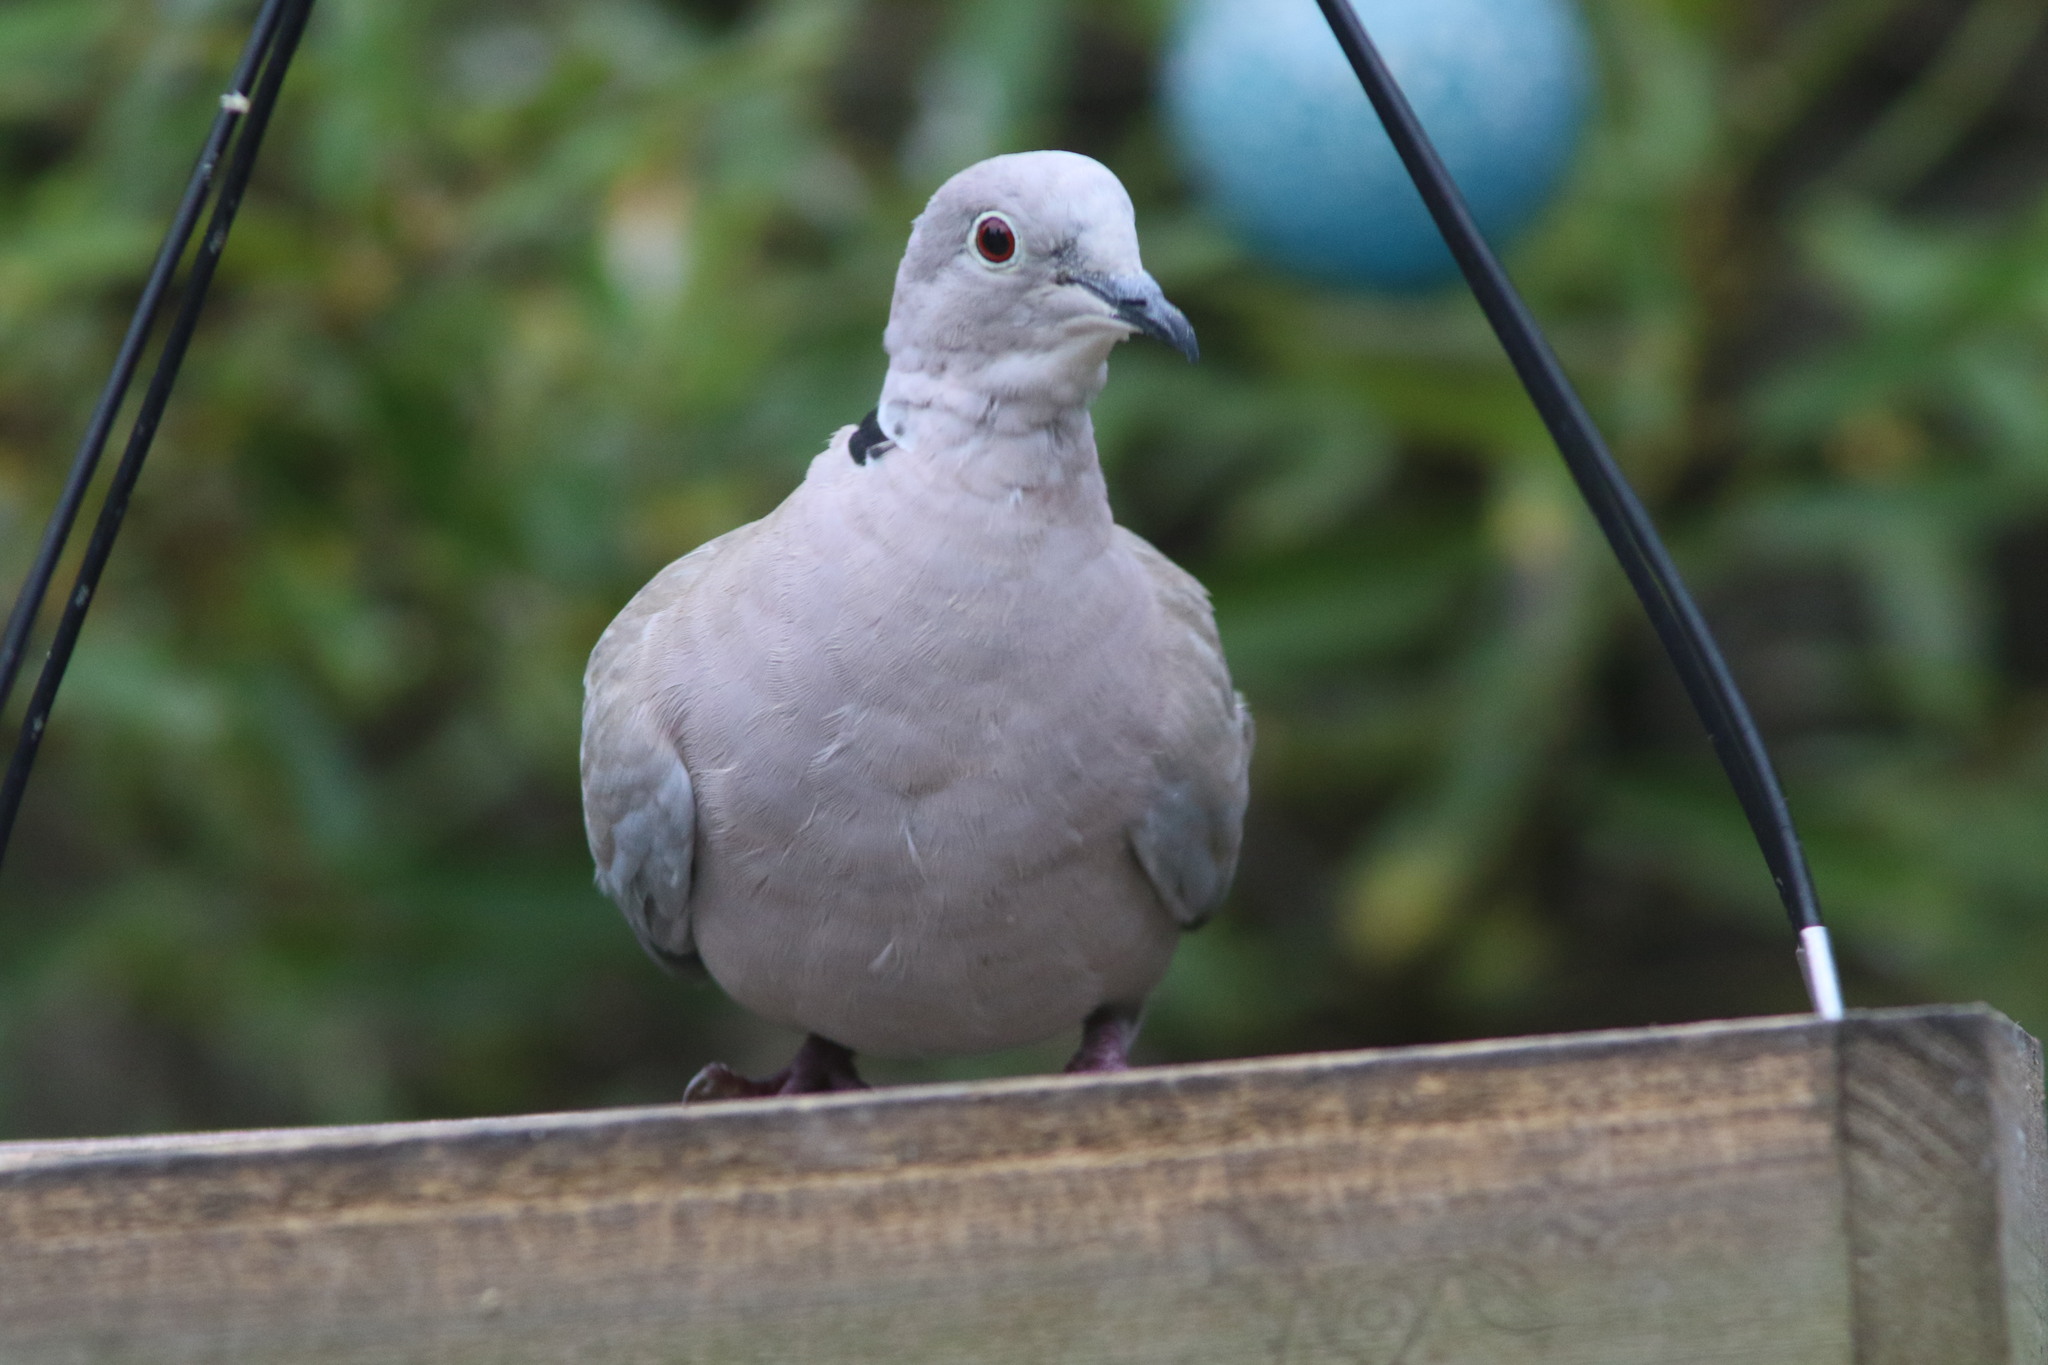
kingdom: Animalia
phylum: Chordata
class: Aves
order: Columbiformes
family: Columbidae
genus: Streptopelia
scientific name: Streptopelia decaocto
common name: Eurasian collared dove
